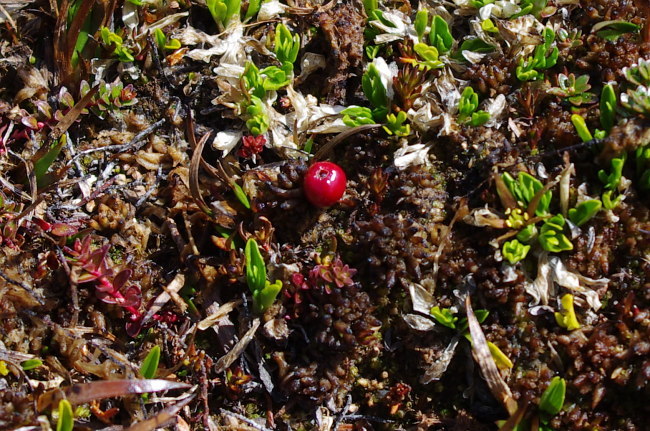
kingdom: Plantae
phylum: Tracheophyta
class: Magnoliopsida
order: Ericales
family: Ericaceae
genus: Empetrum
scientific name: Empetrum rubrum
